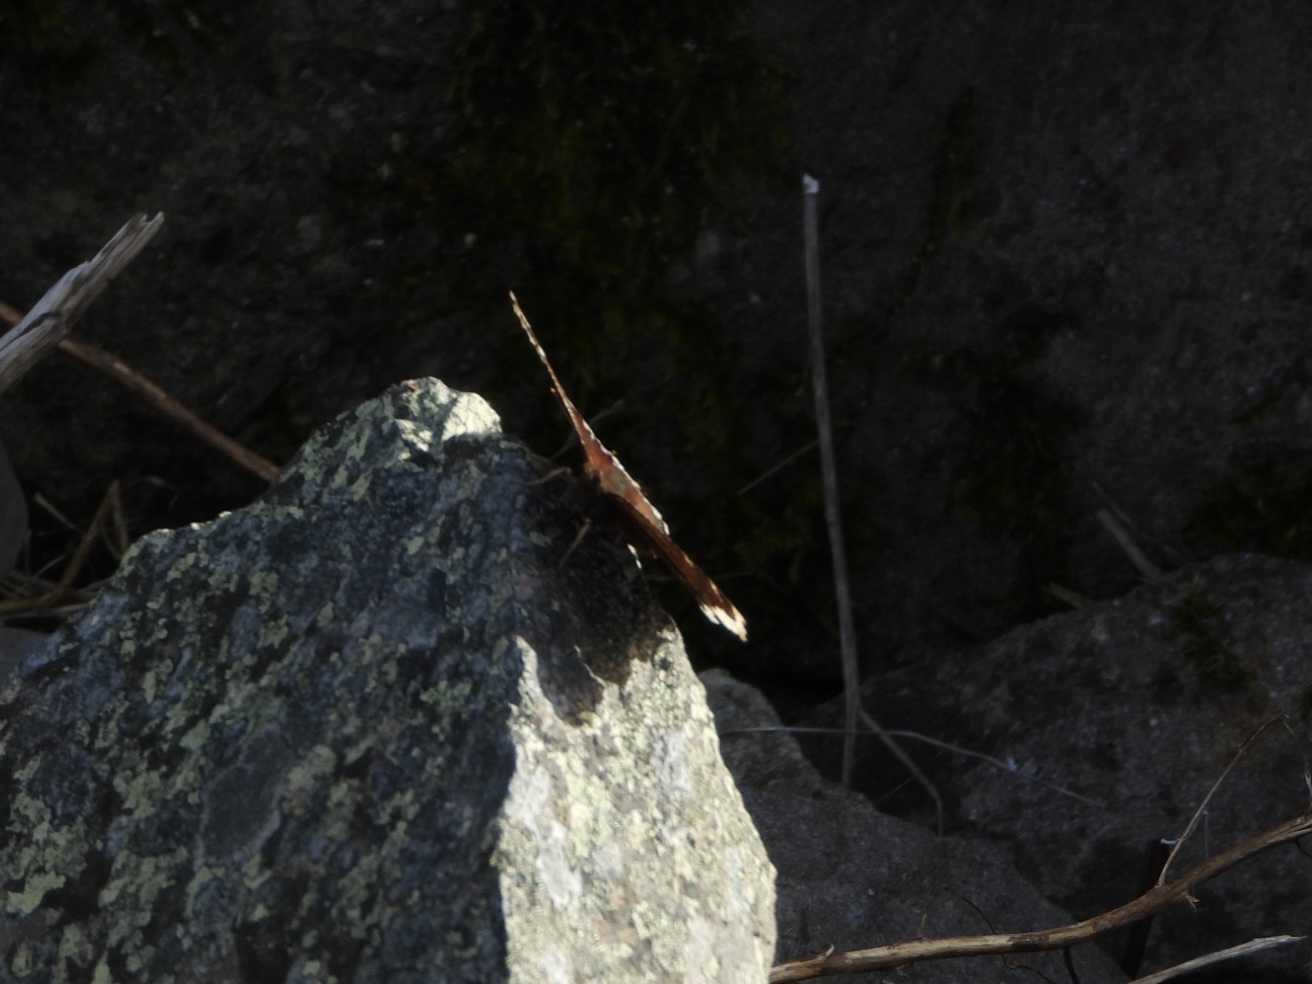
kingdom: Animalia
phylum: Arthropoda
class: Insecta
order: Lepidoptera
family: Nymphalidae
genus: Nymphalis
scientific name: Nymphalis antiopa
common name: Camberwell beauty
